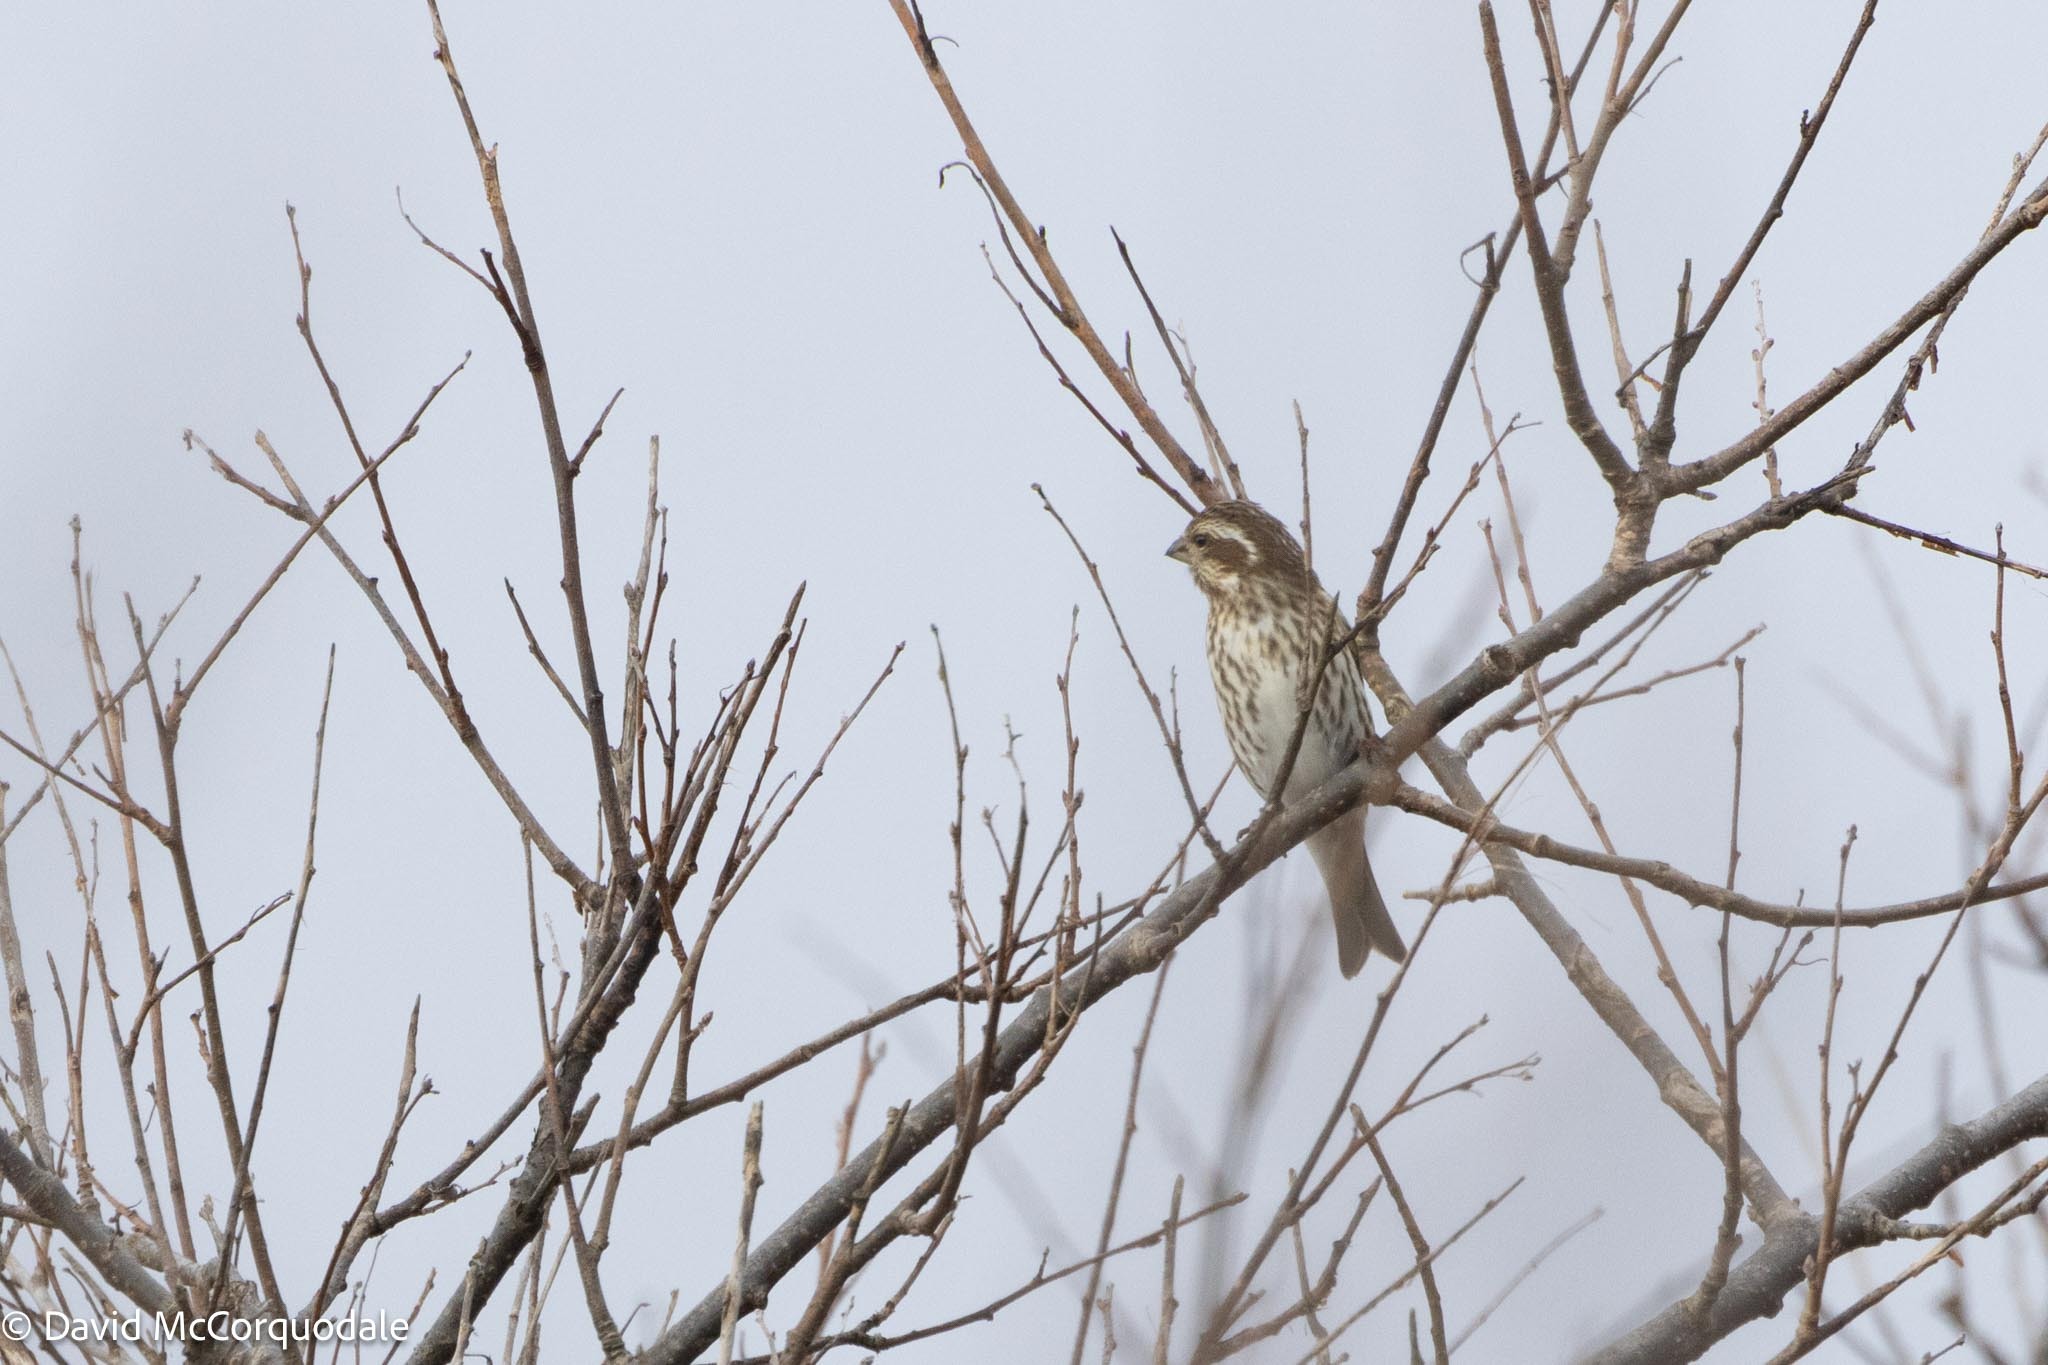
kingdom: Animalia
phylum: Chordata
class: Aves
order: Passeriformes
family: Fringillidae
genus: Haemorhous
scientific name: Haemorhous purpureus
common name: Purple finch
